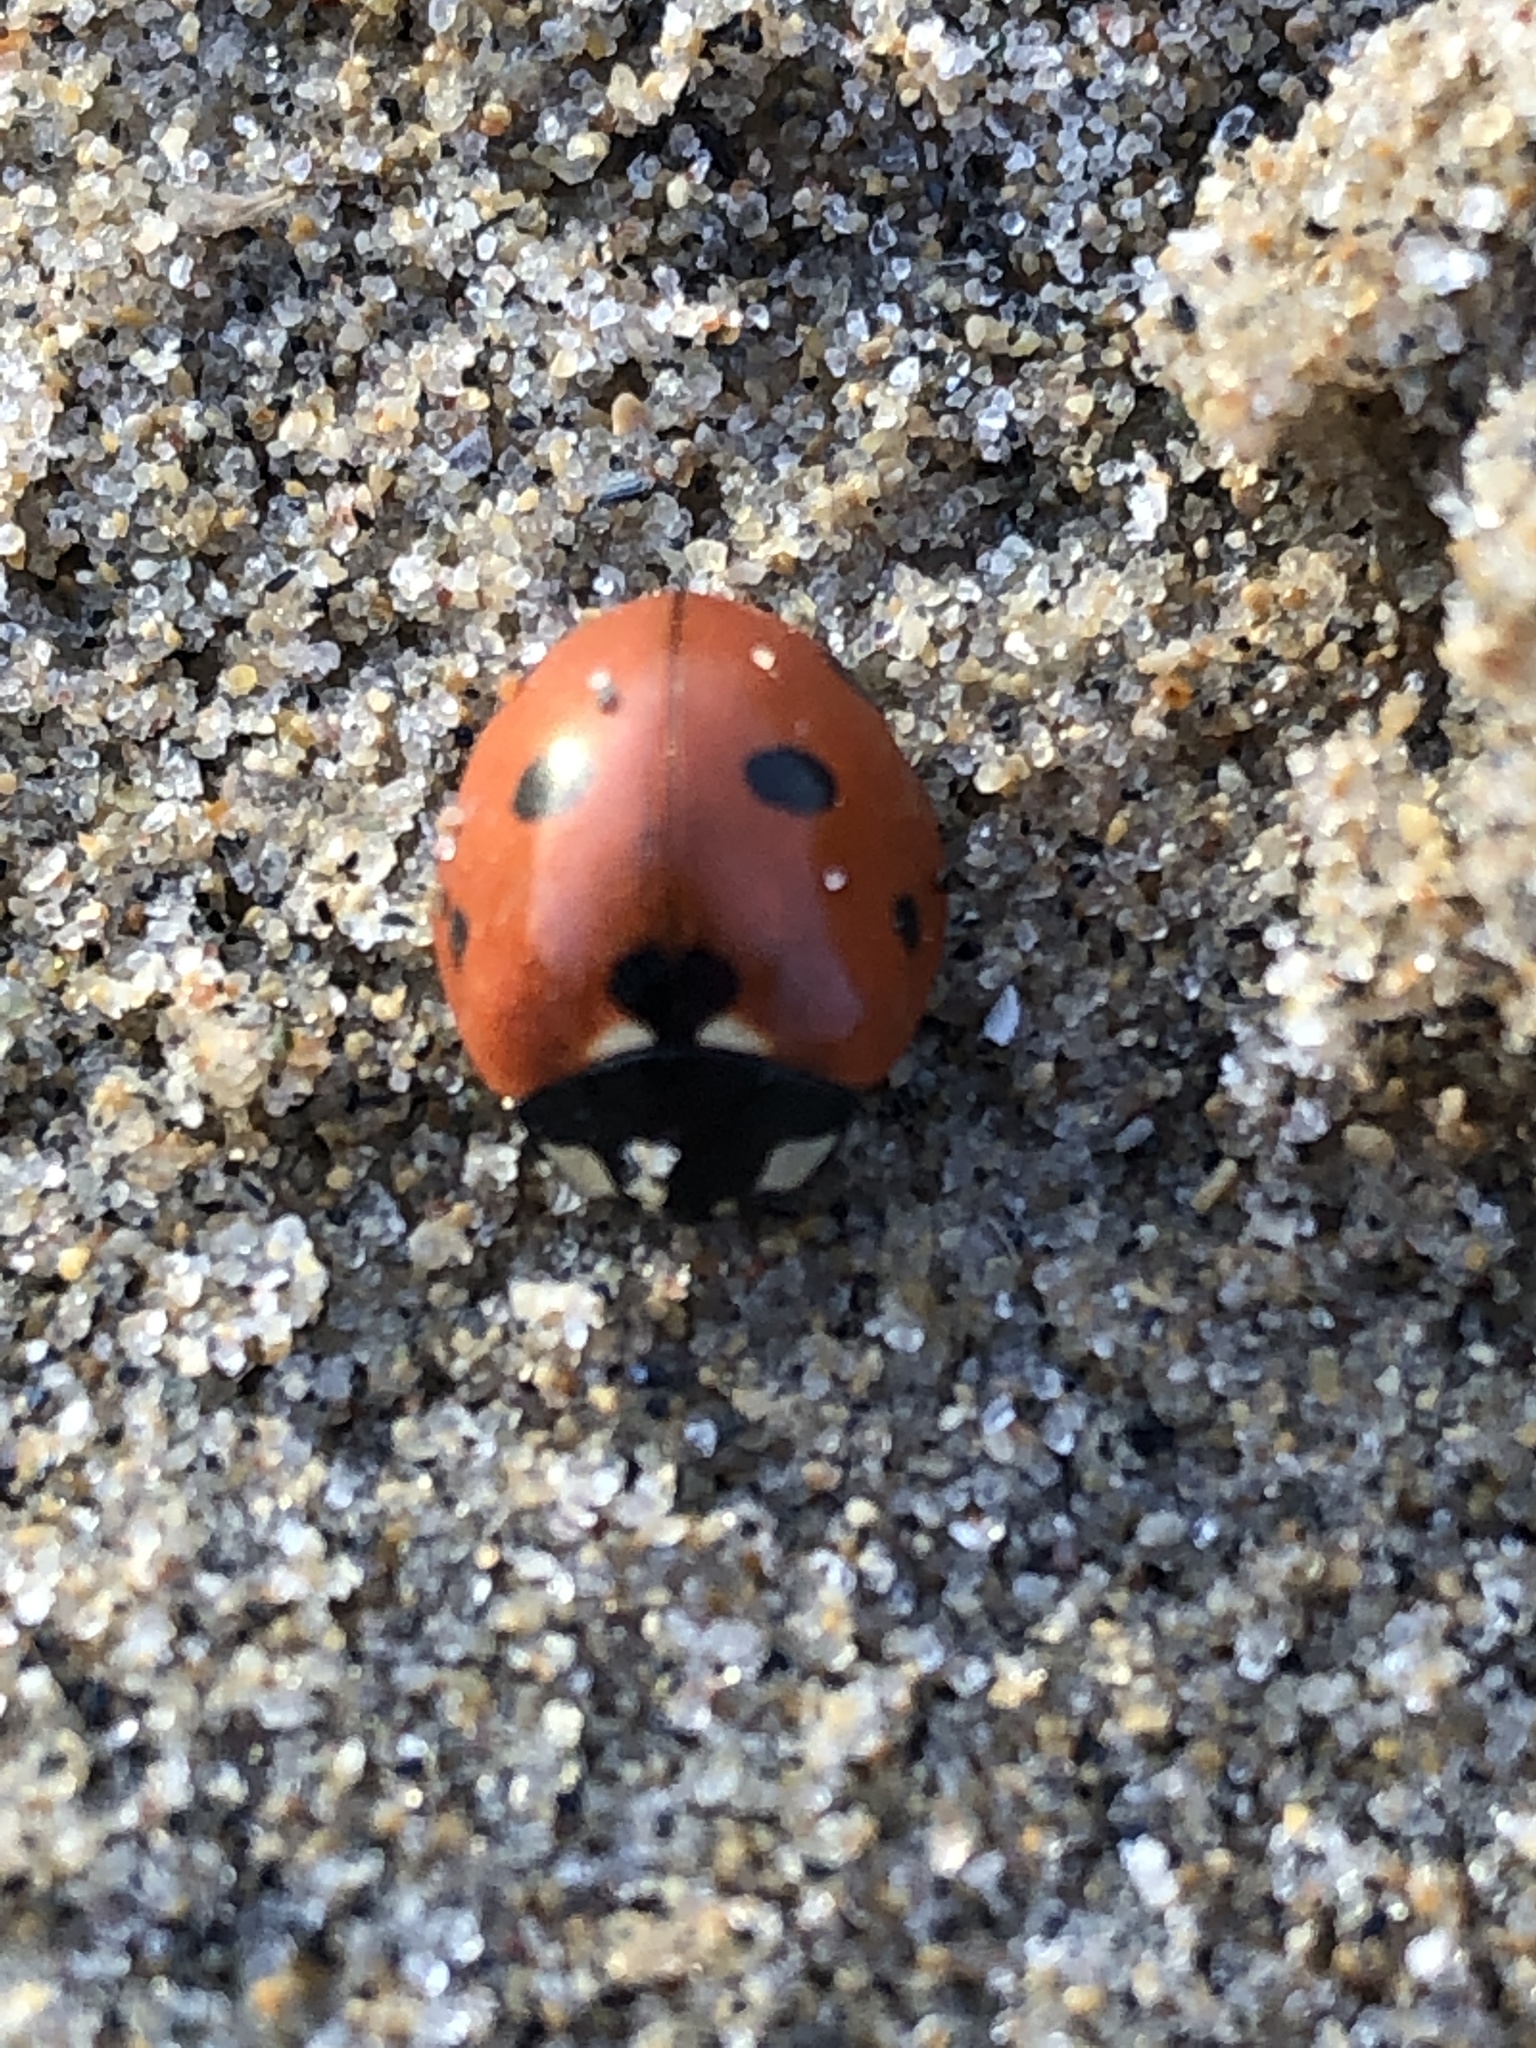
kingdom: Animalia
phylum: Arthropoda
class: Insecta
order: Coleoptera
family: Coccinellidae
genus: Coccinella
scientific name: Coccinella septempunctata
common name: Sevenspotted lady beetle
